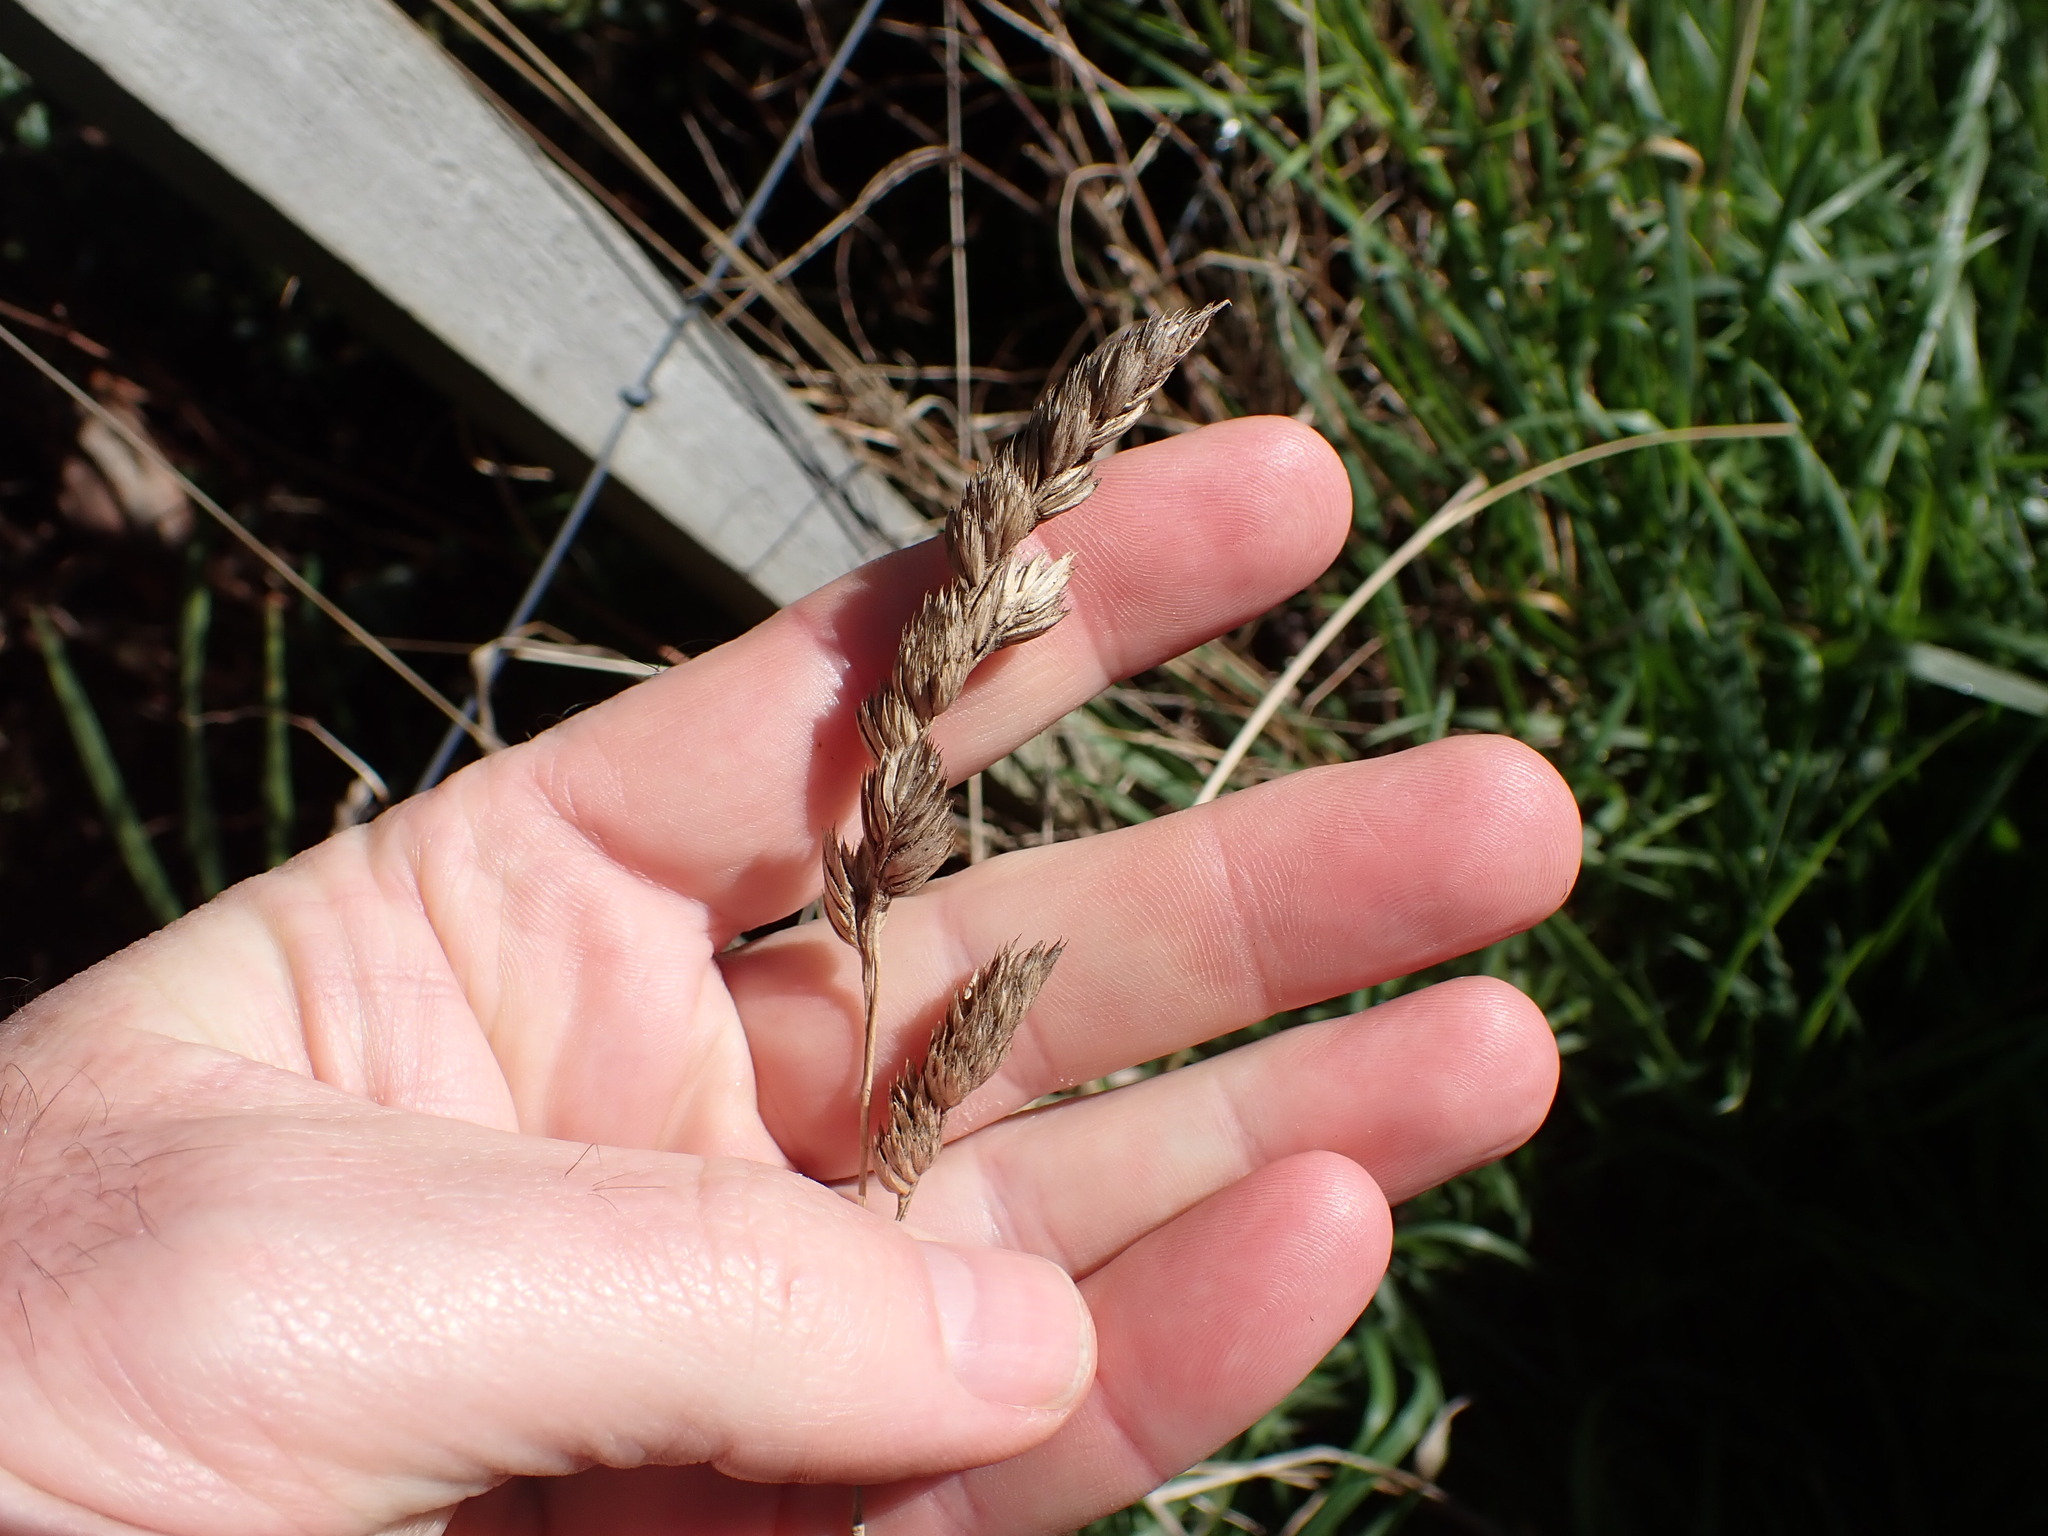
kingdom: Plantae
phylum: Tracheophyta
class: Liliopsida
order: Poales
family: Poaceae
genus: Dactylis
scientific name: Dactylis glomerata
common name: Orchardgrass
